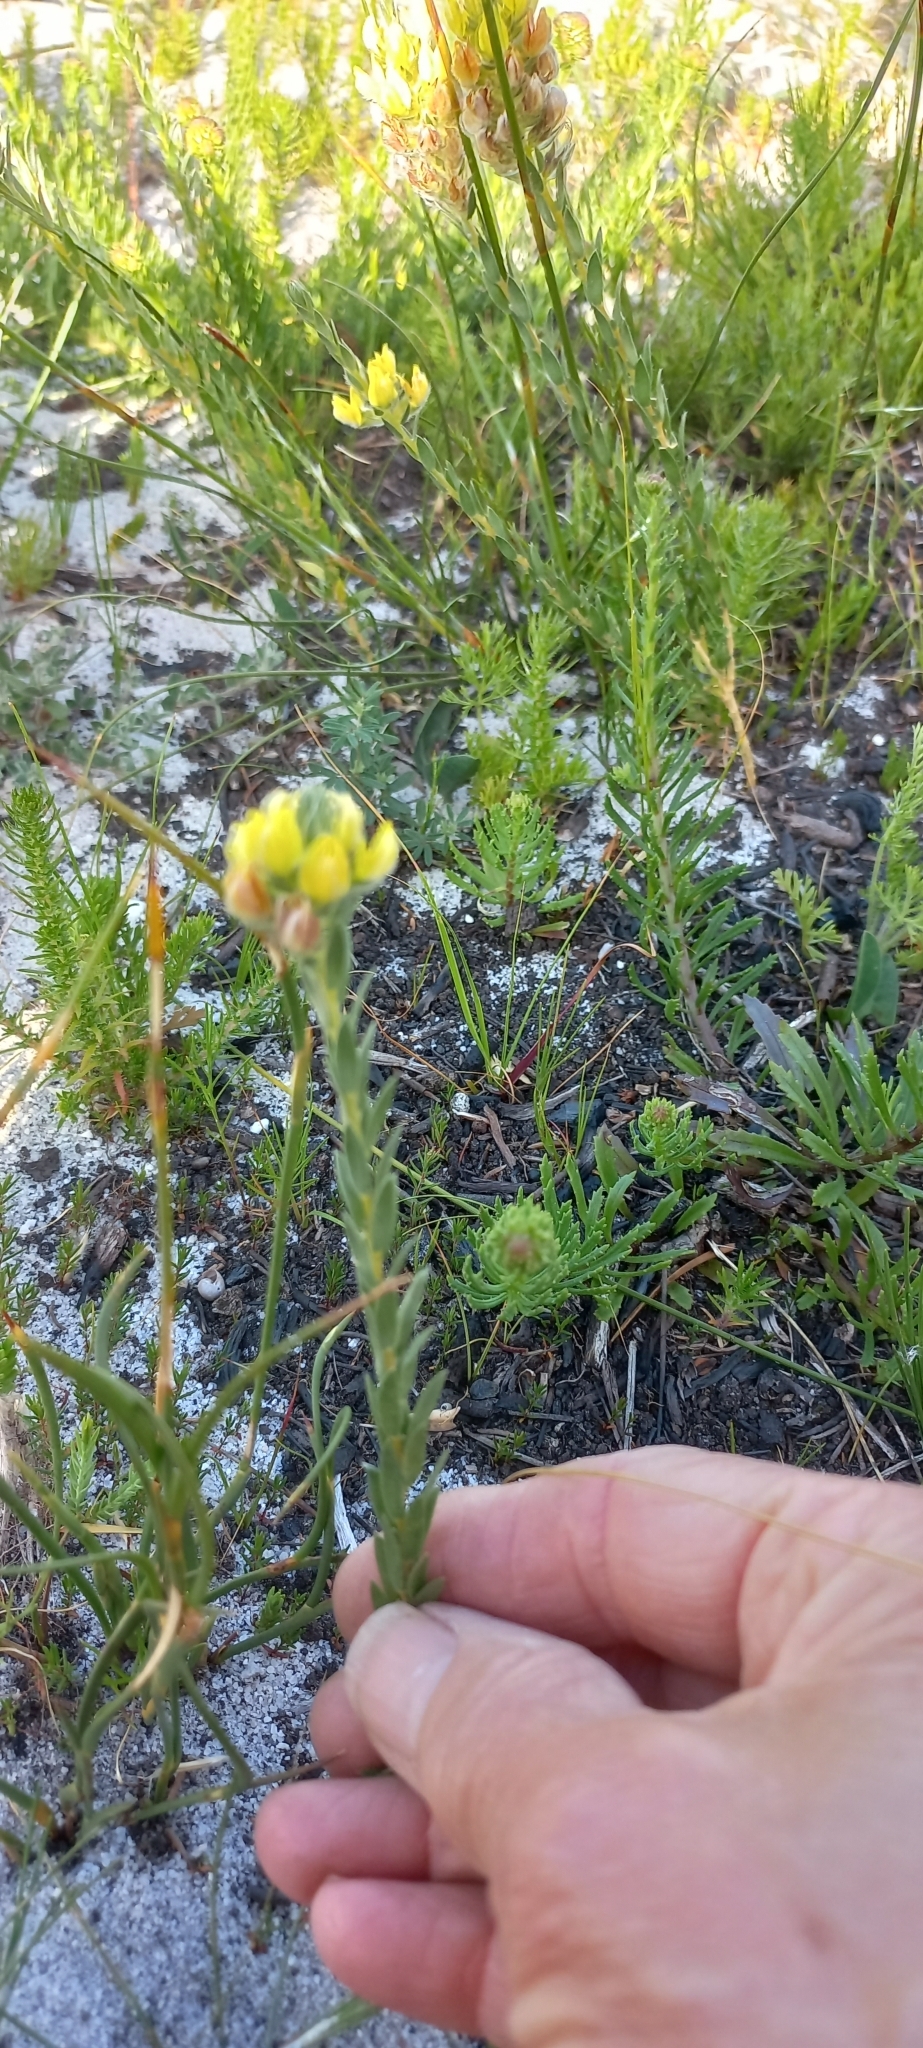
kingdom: Plantae
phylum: Tracheophyta
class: Magnoliopsida
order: Fabales
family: Fabaceae
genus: Aspalathus
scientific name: Aspalathus sericea
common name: Silky pea
